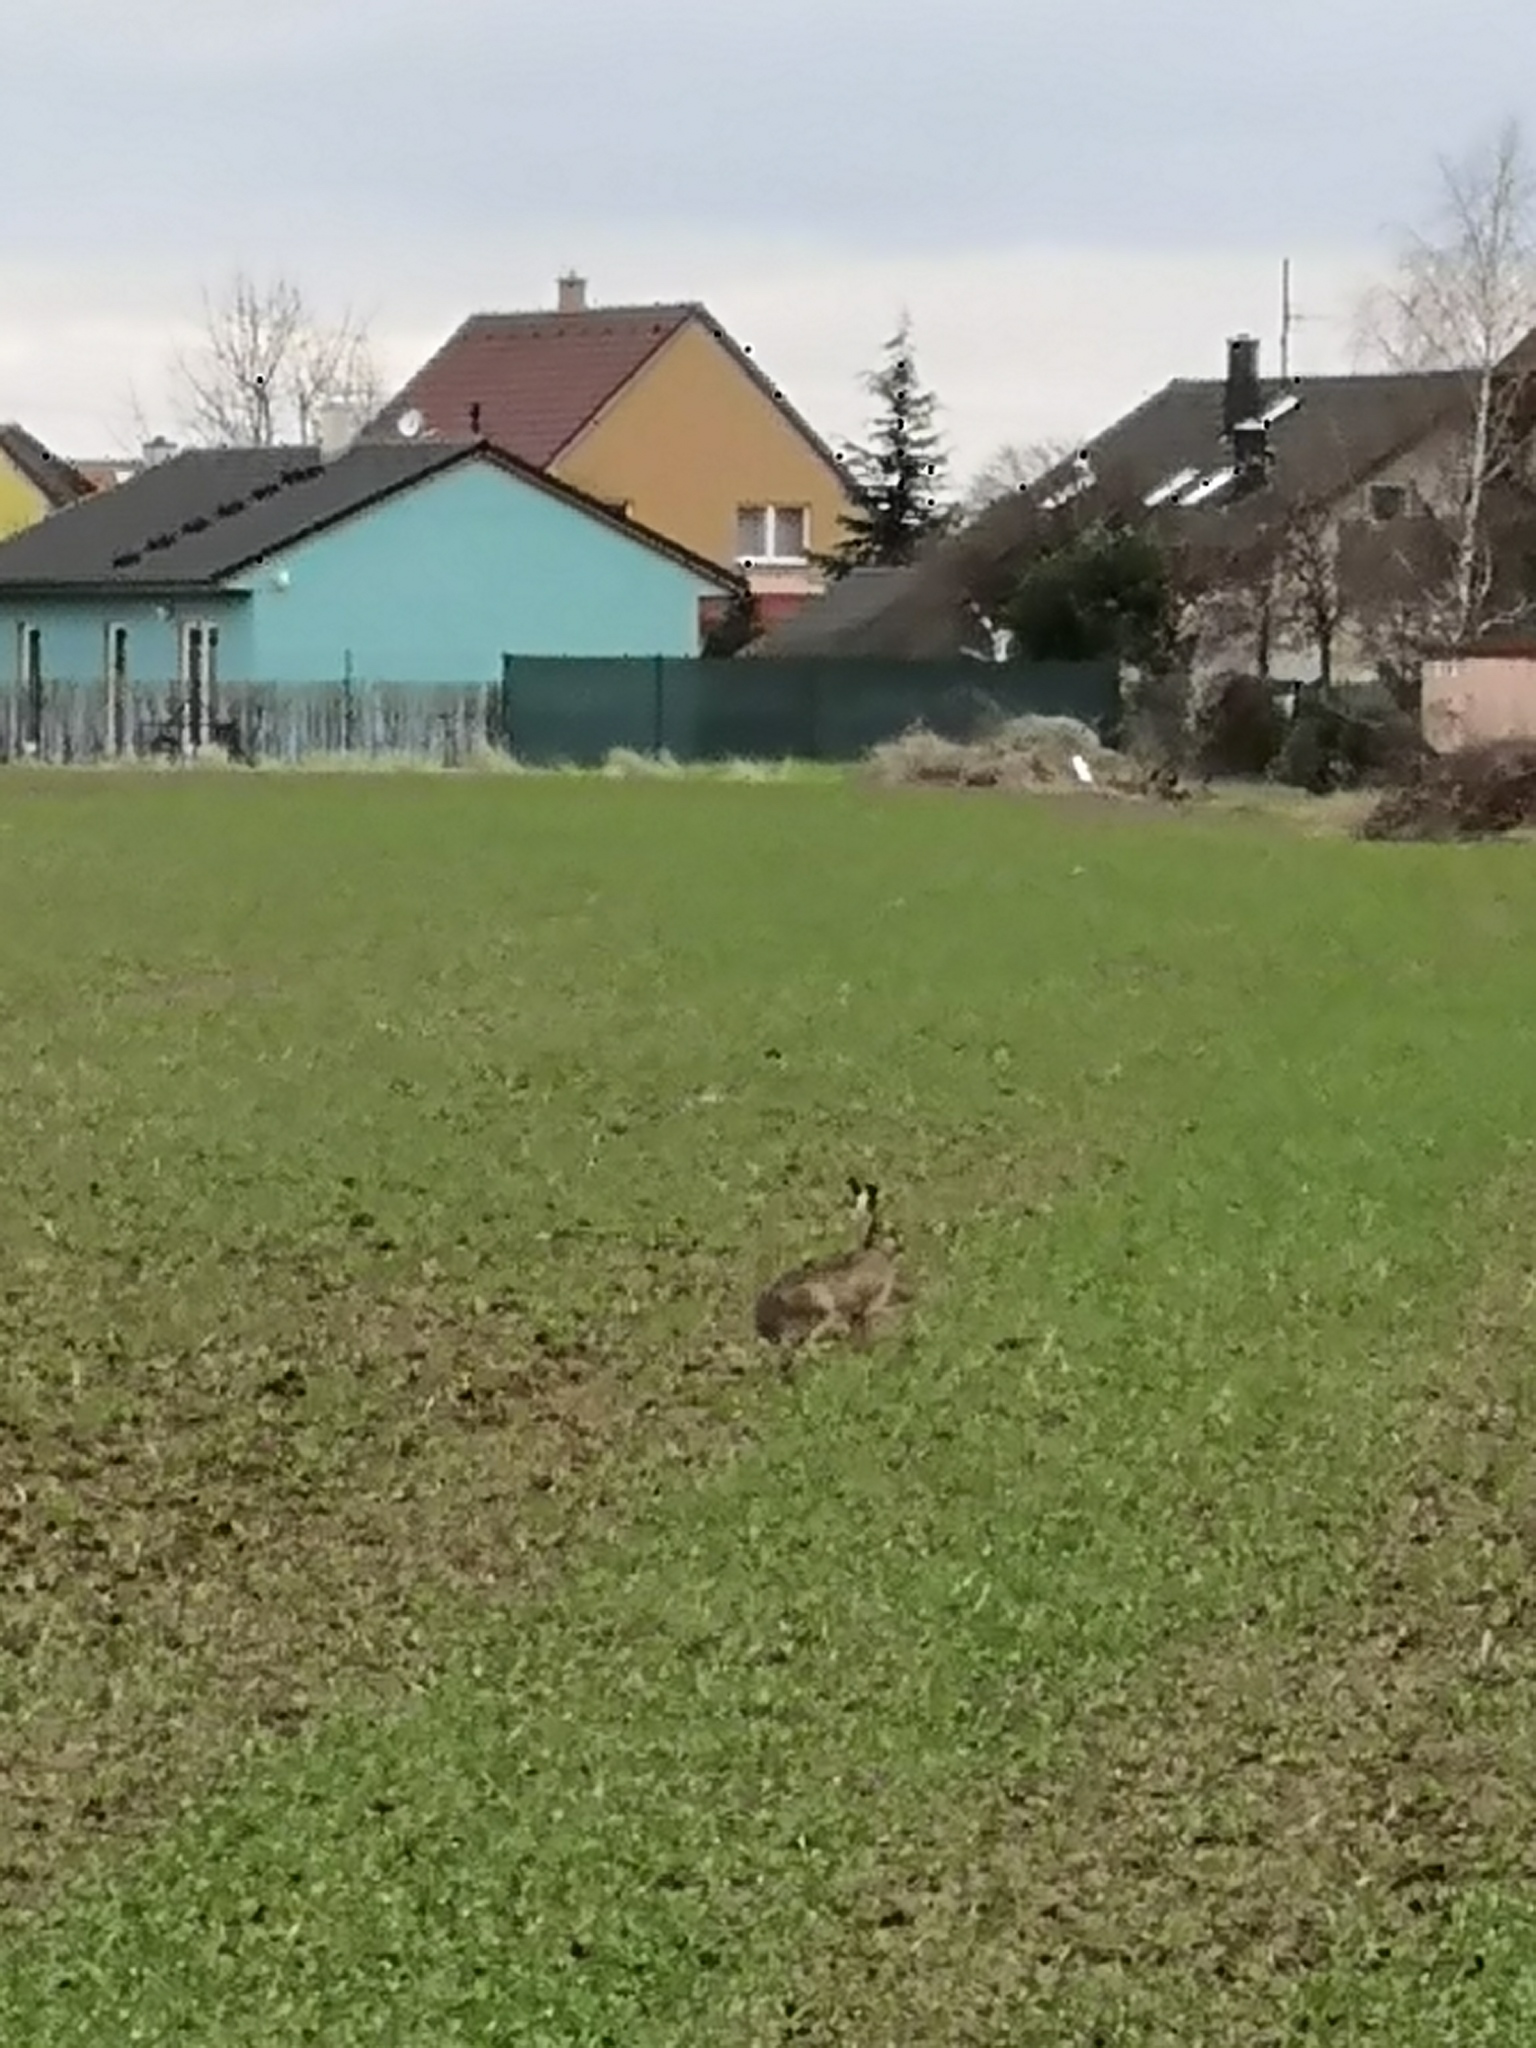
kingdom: Animalia
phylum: Chordata
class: Mammalia
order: Lagomorpha
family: Leporidae
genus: Lepus
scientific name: Lepus europaeus
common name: European hare
